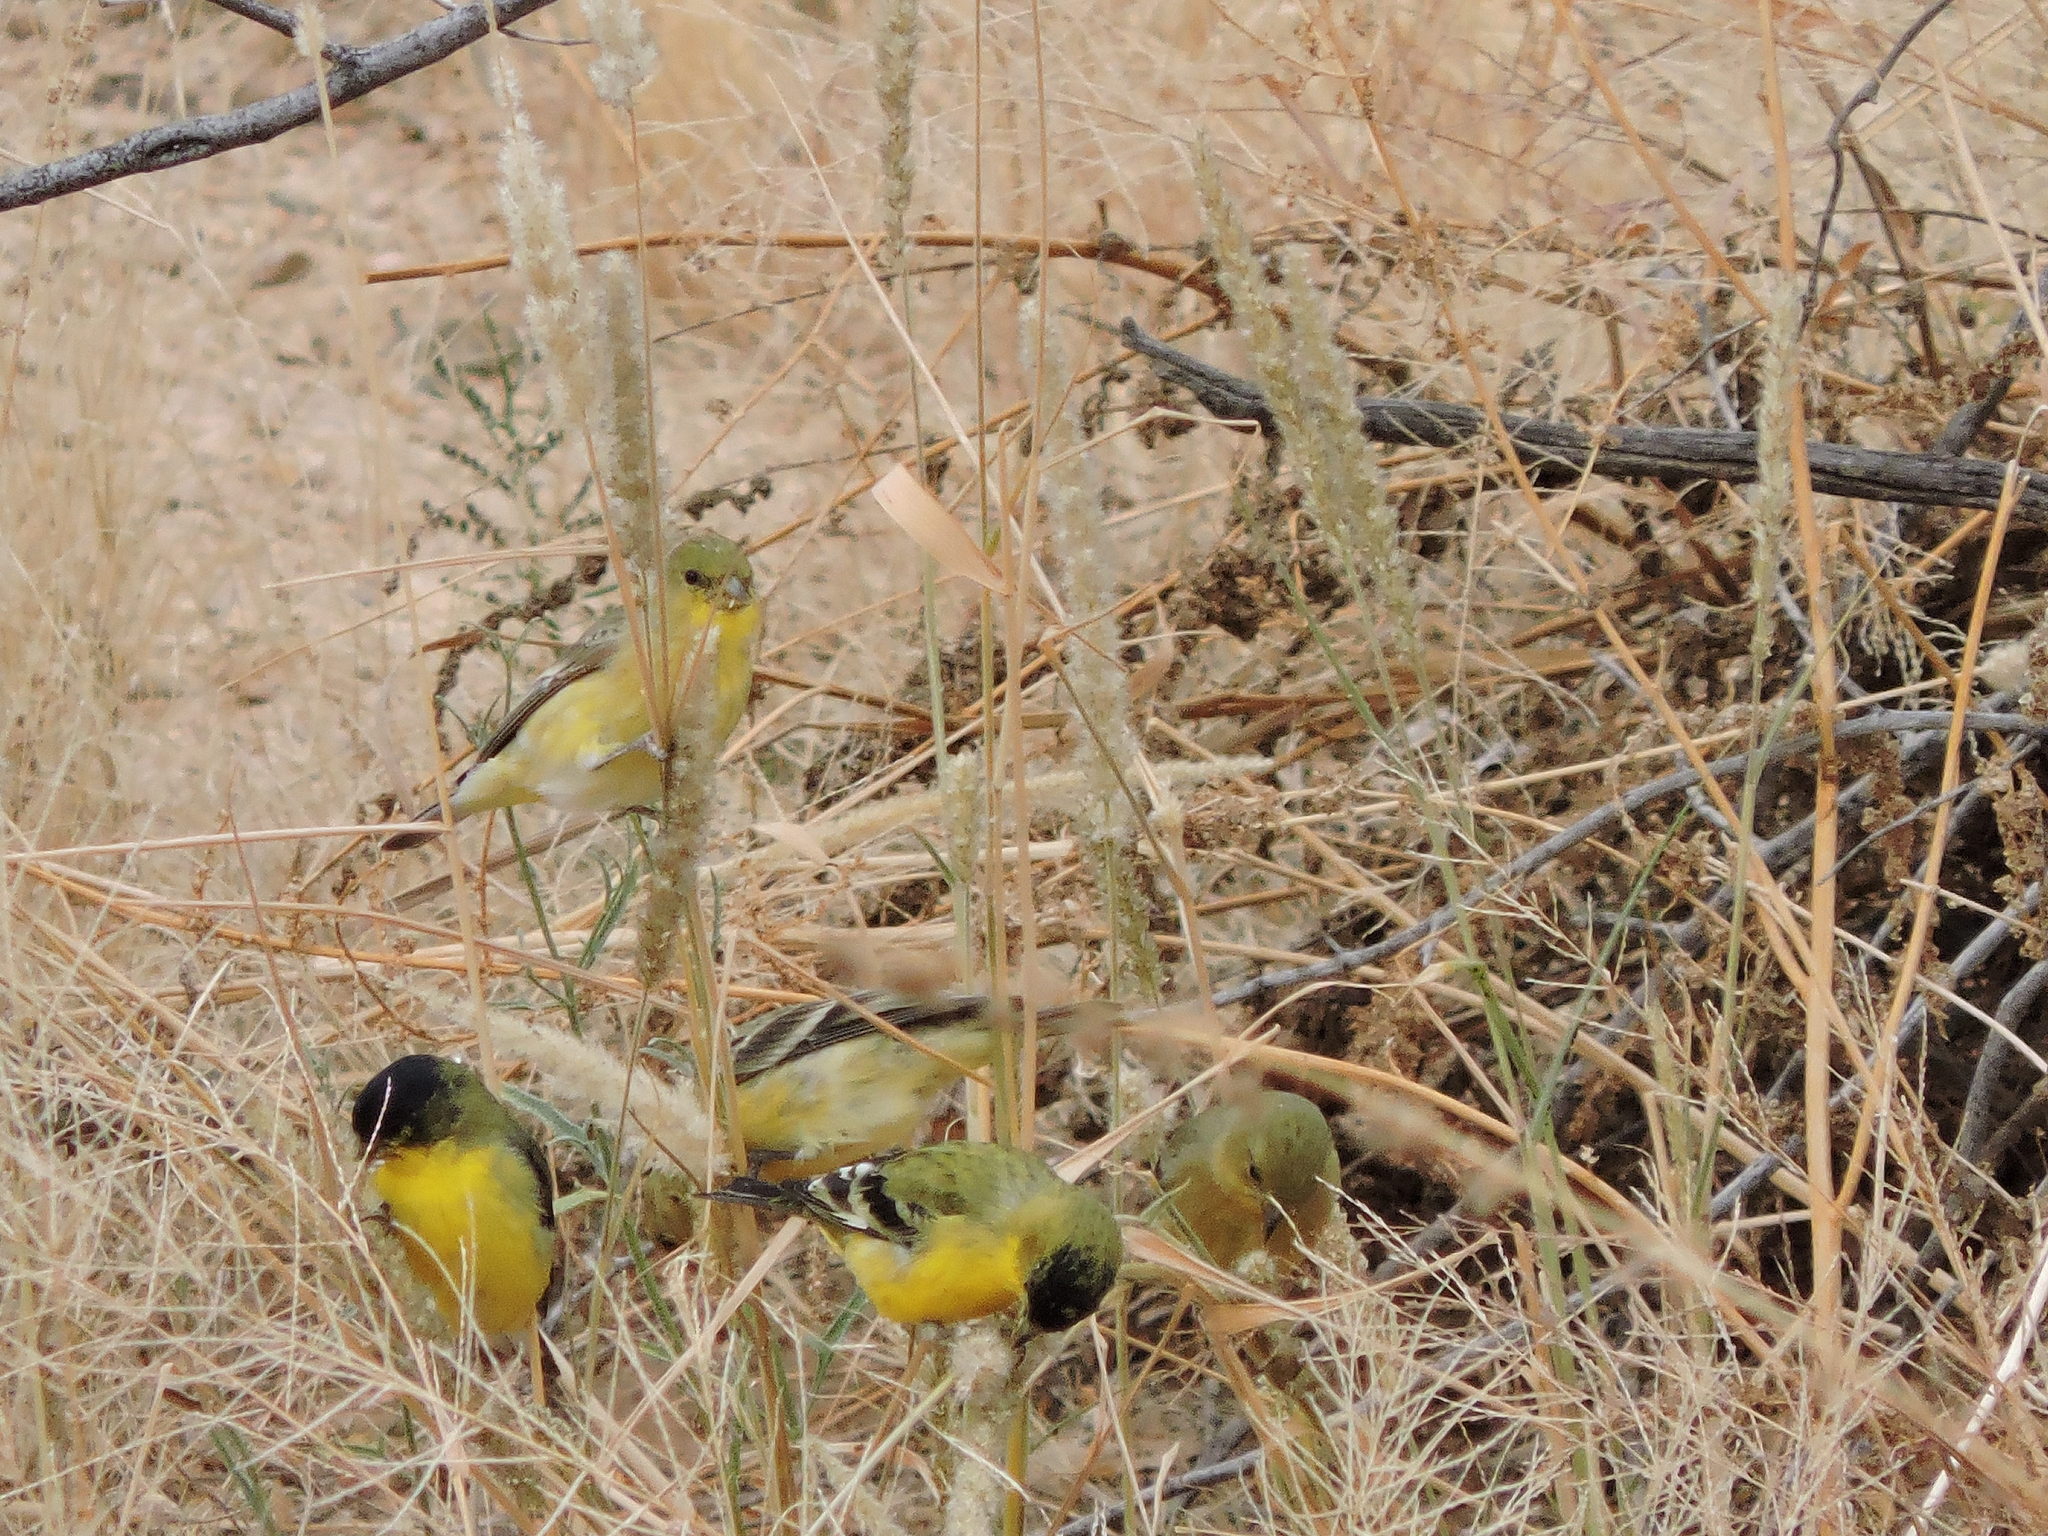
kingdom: Animalia
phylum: Chordata
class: Aves
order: Passeriformes
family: Fringillidae
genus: Spinus
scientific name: Spinus psaltria
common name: Lesser goldfinch
